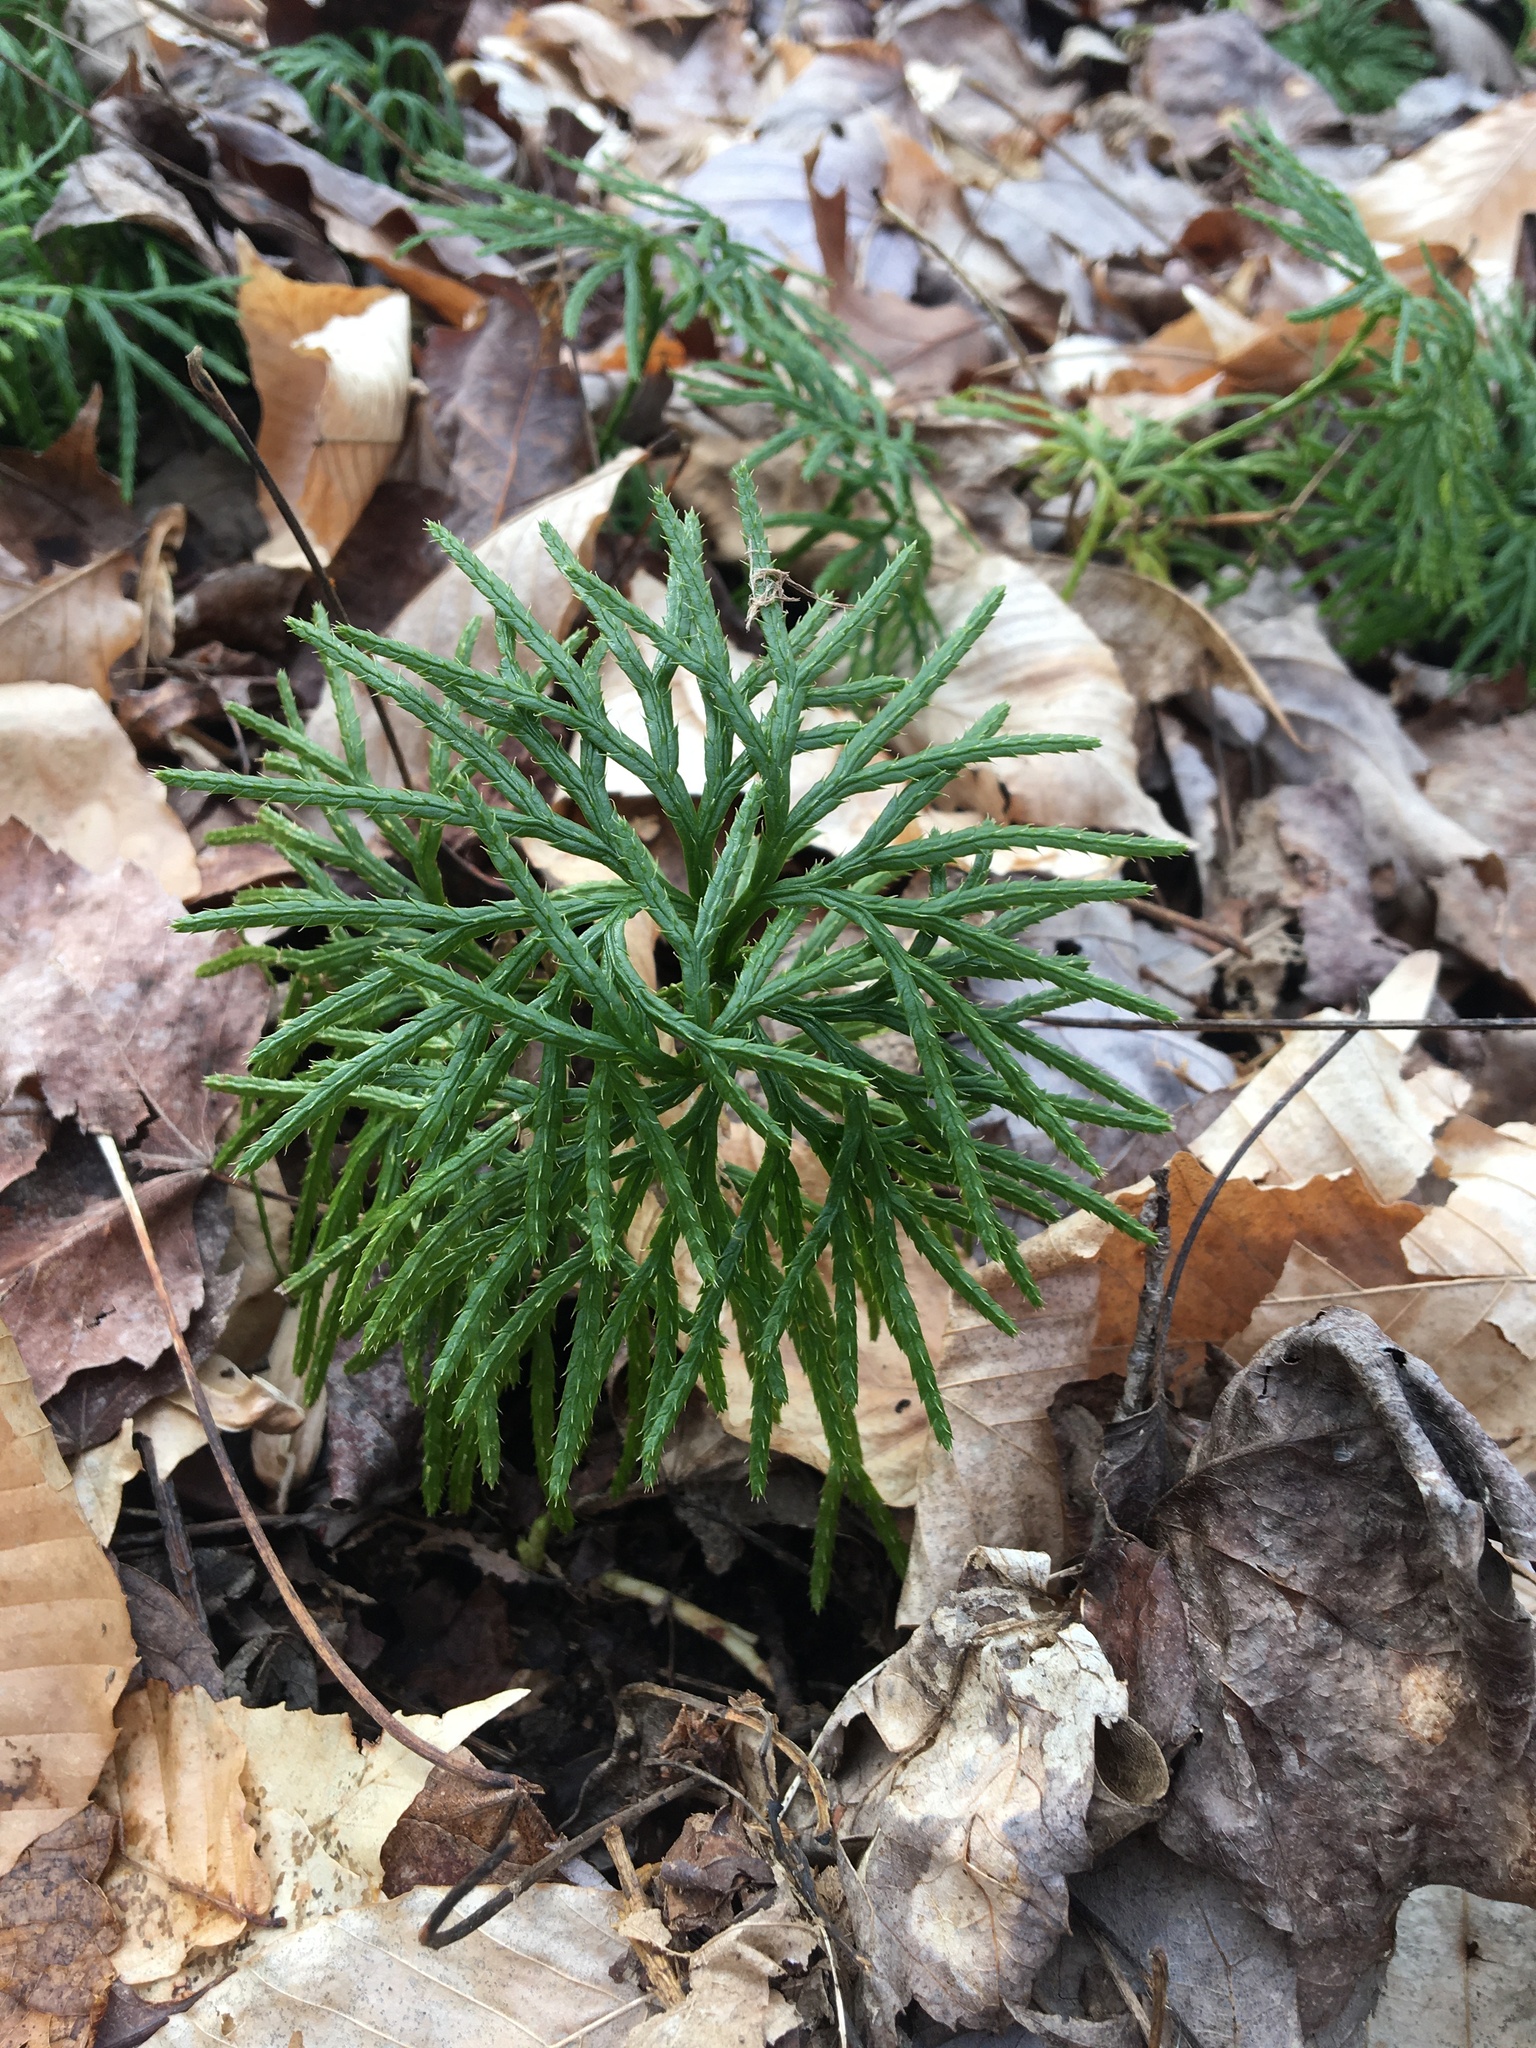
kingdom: Plantae
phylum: Tracheophyta
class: Lycopodiopsida
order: Lycopodiales
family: Lycopodiaceae
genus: Diphasiastrum
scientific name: Diphasiastrum digitatum
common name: Southern running-pine
